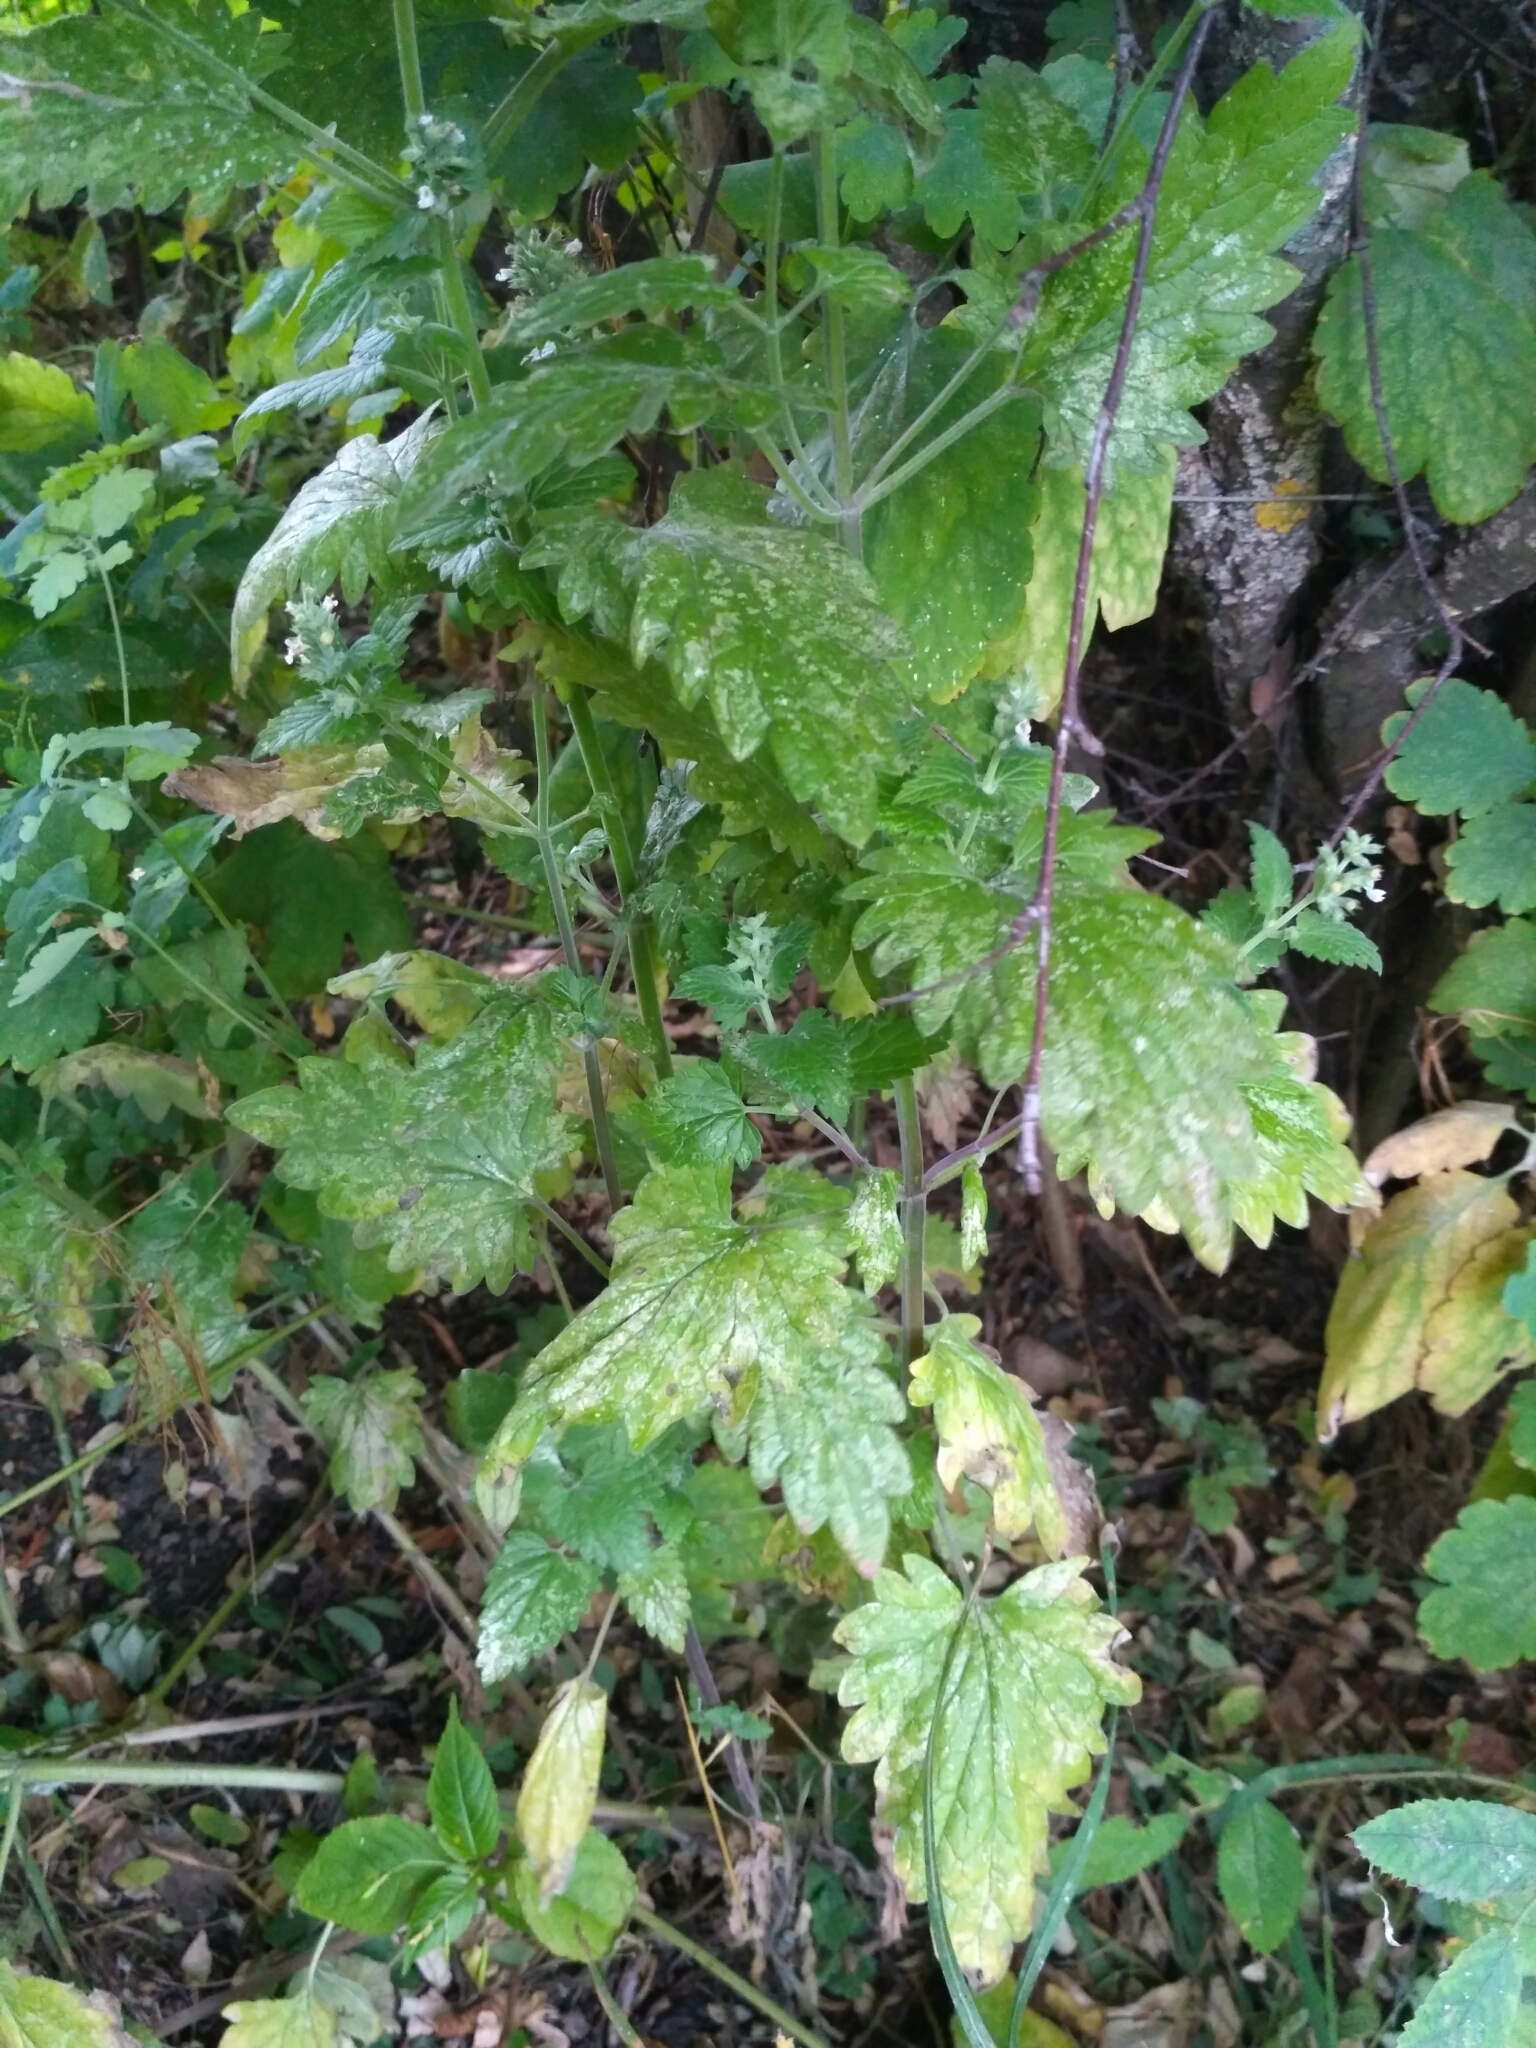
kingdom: Plantae
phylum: Tracheophyta
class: Magnoliopsida
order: Lamiales
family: Lamiaceae
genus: Nepeta
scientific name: Nepeta cataria
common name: Catnip
